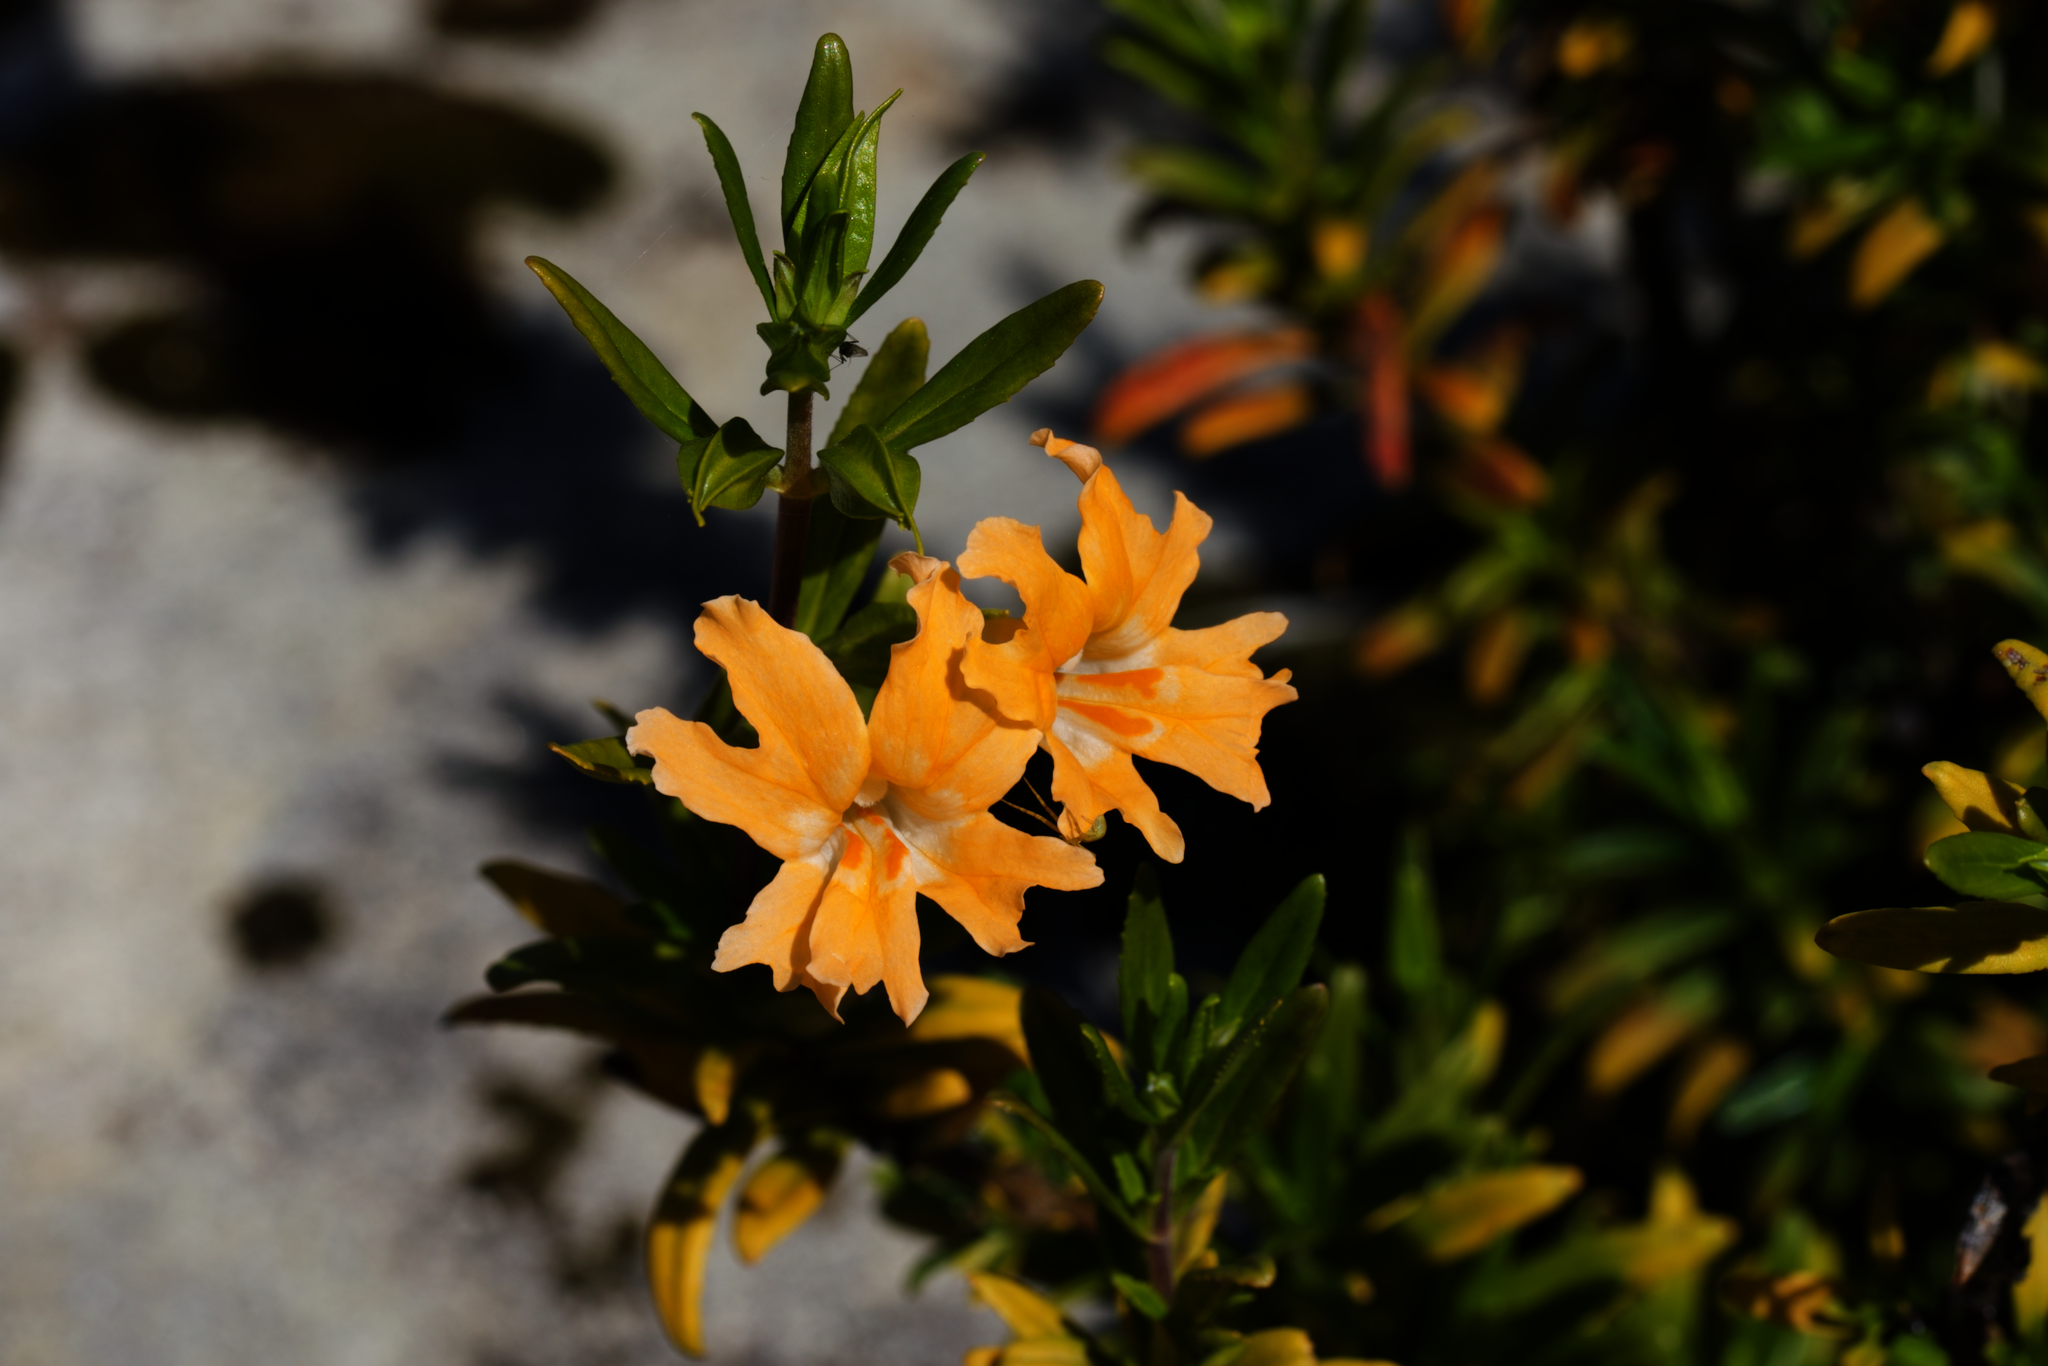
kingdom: Plantae
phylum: Tracheophyta
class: Magnoliopsida
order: Lamiales
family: Phrymaceae
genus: Diplacus
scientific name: Diplacus linearis
